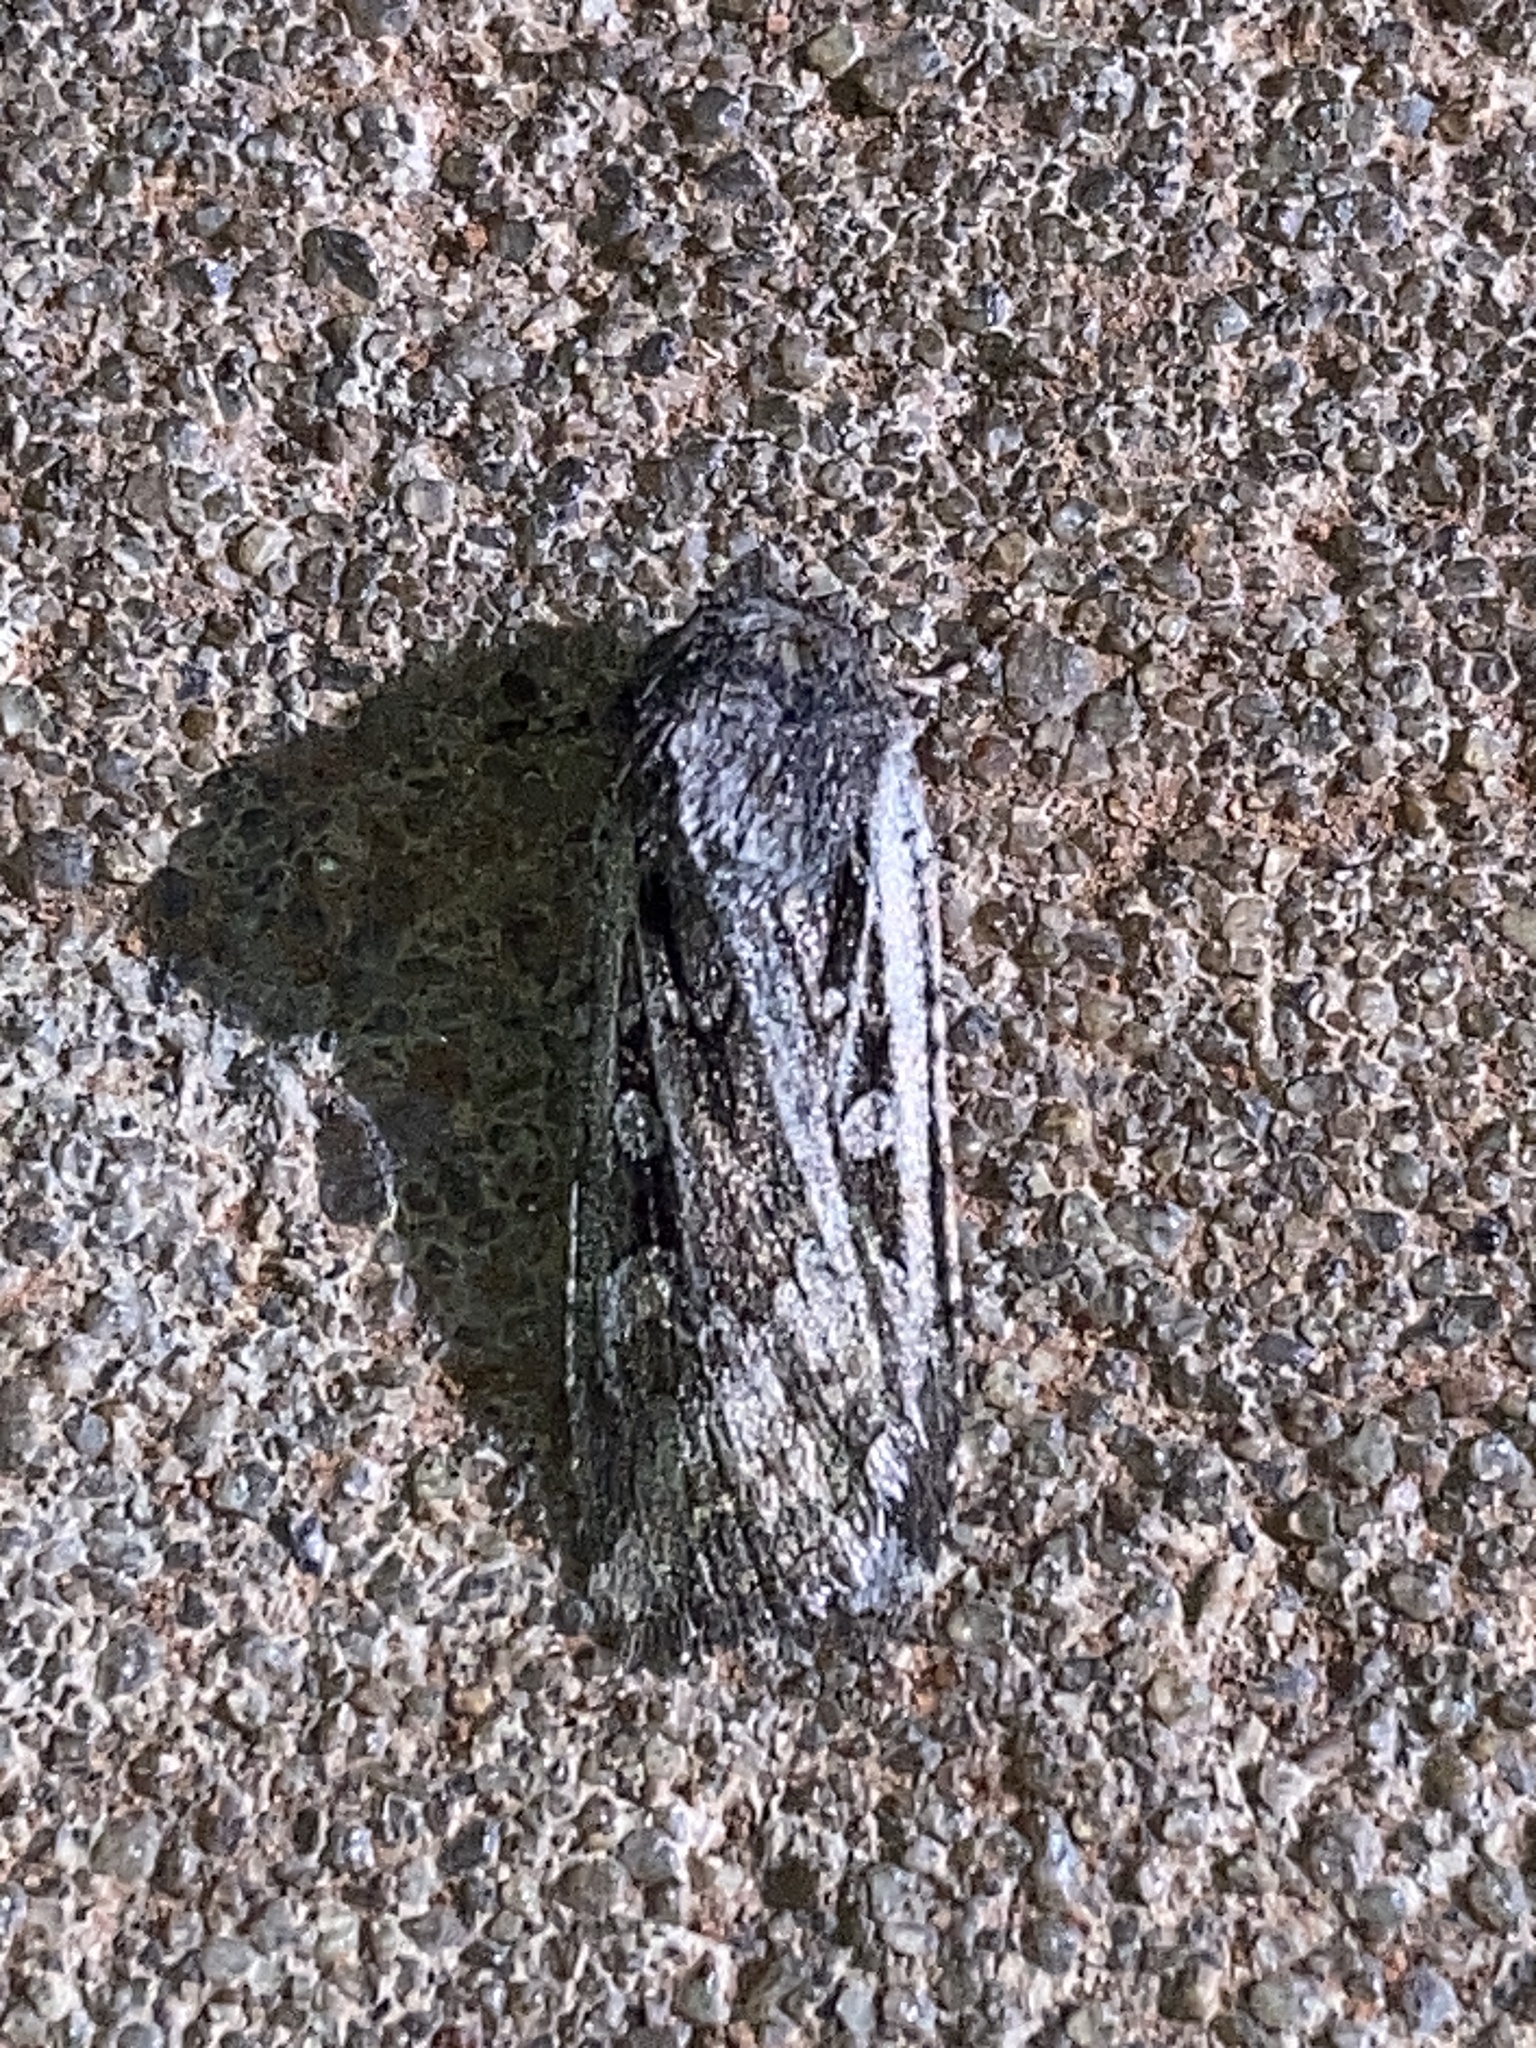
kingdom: Animalia
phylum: Arthropoda
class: Insecta
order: Lepidoptera
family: Noctuidae
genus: Euxoa
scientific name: Euxoa auxiliaris
